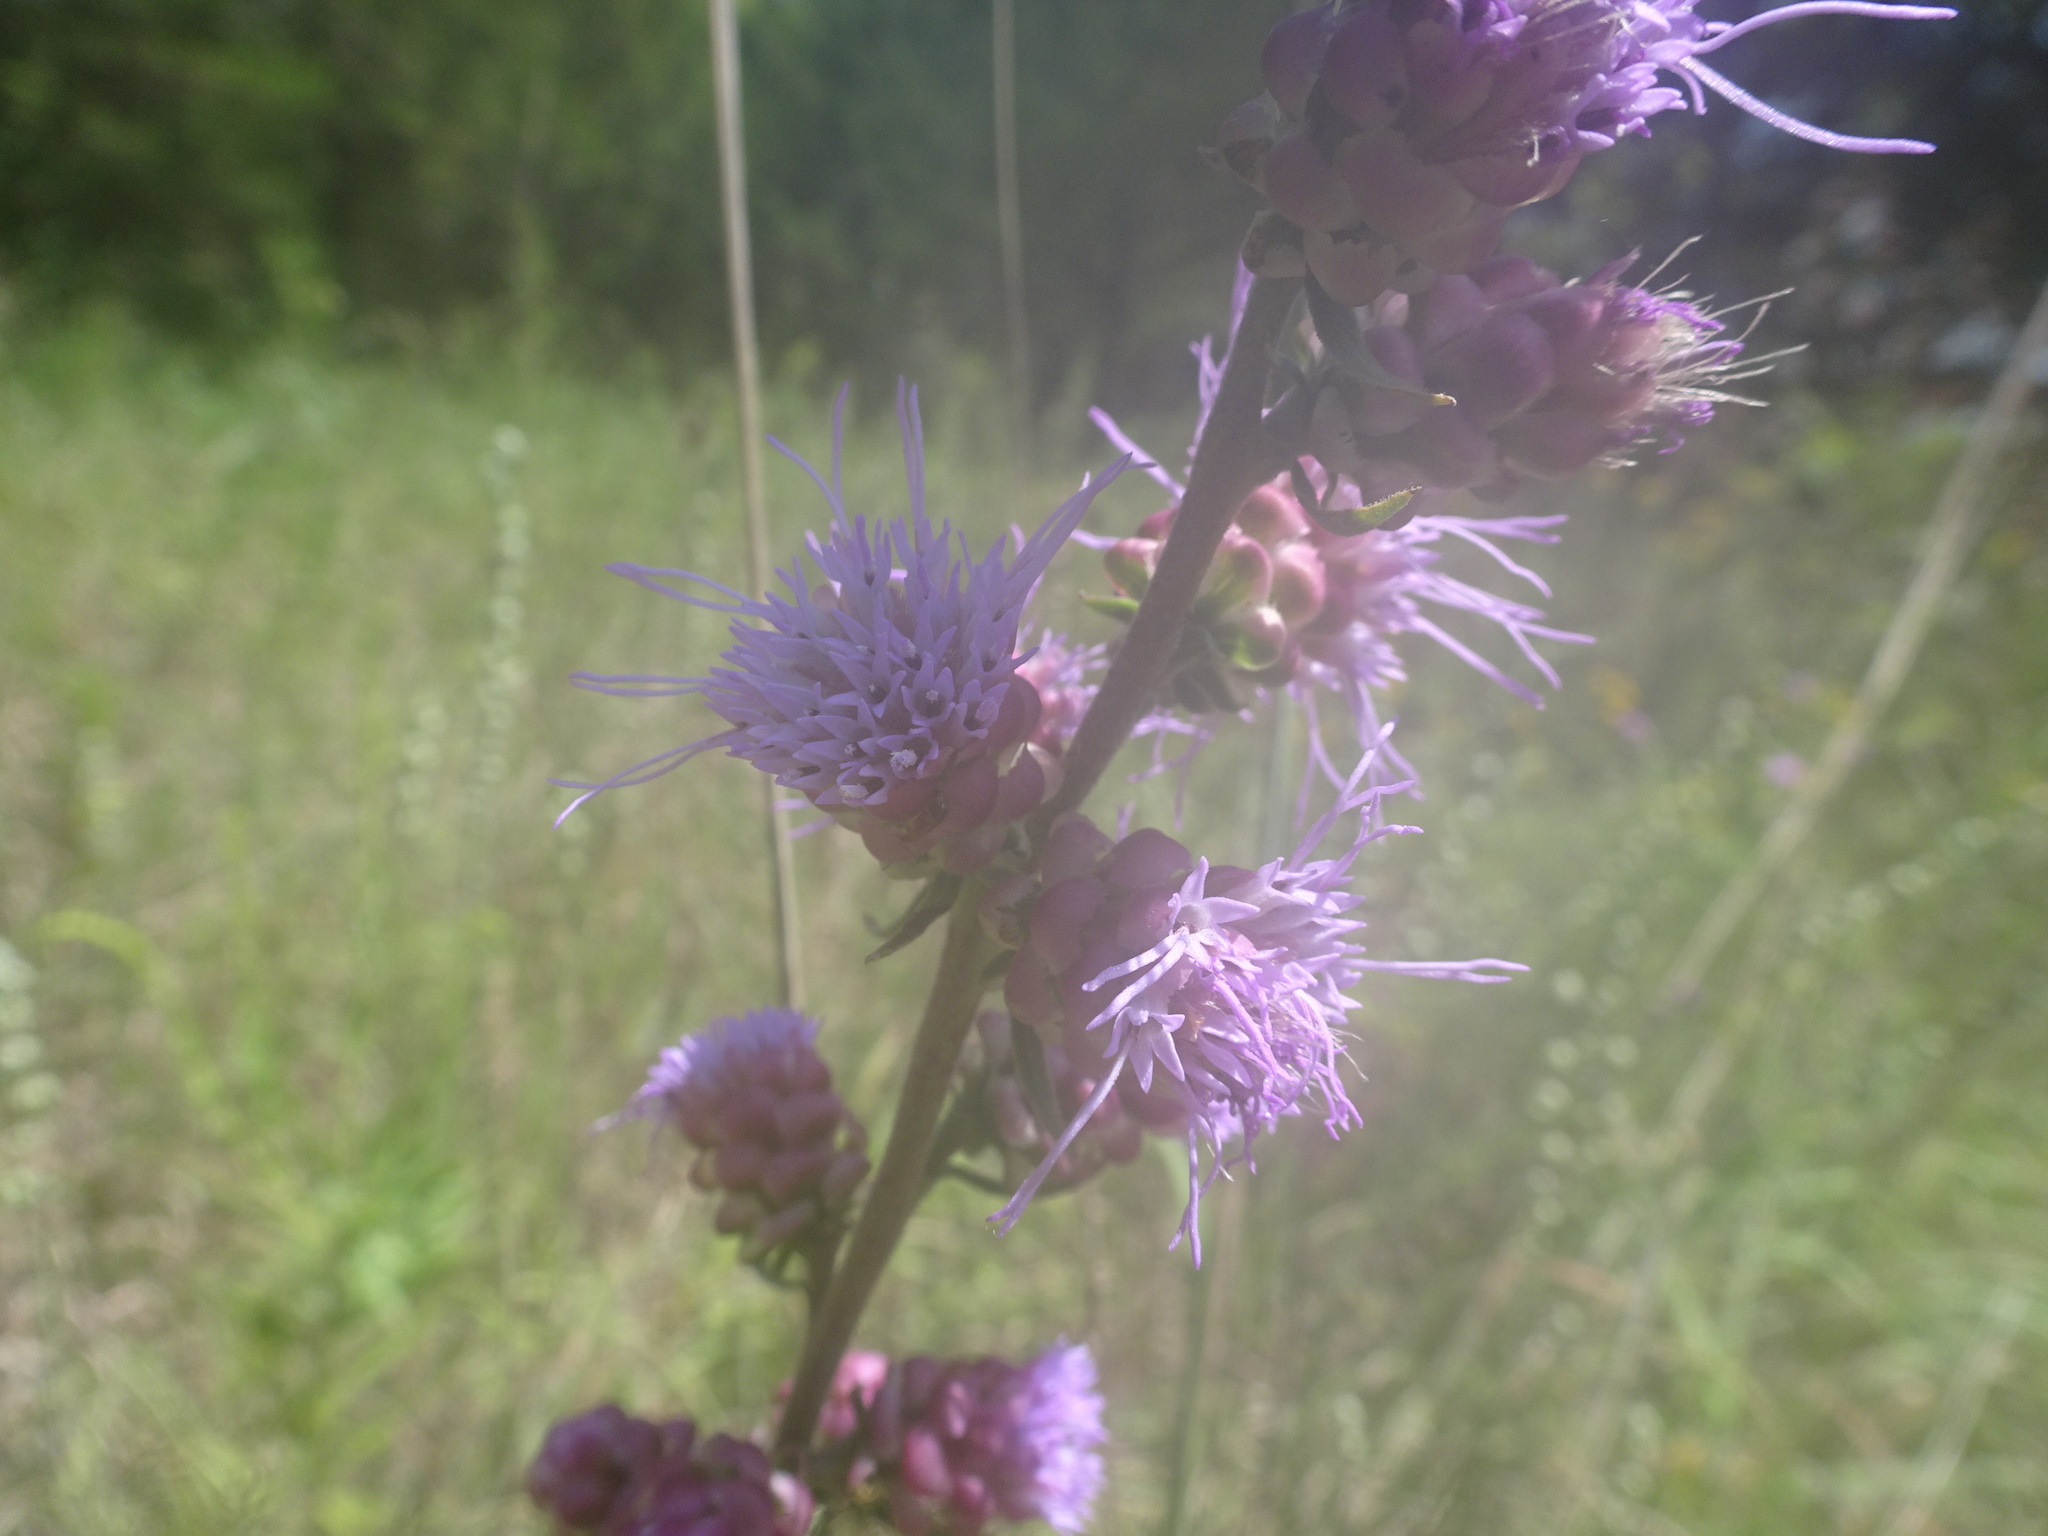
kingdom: Plantae
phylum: Tracheophyta
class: Magnoliopsida
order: Asterales
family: Asteraceae
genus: Liatris
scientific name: Liatris aspera
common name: Lacerate blazing-star
